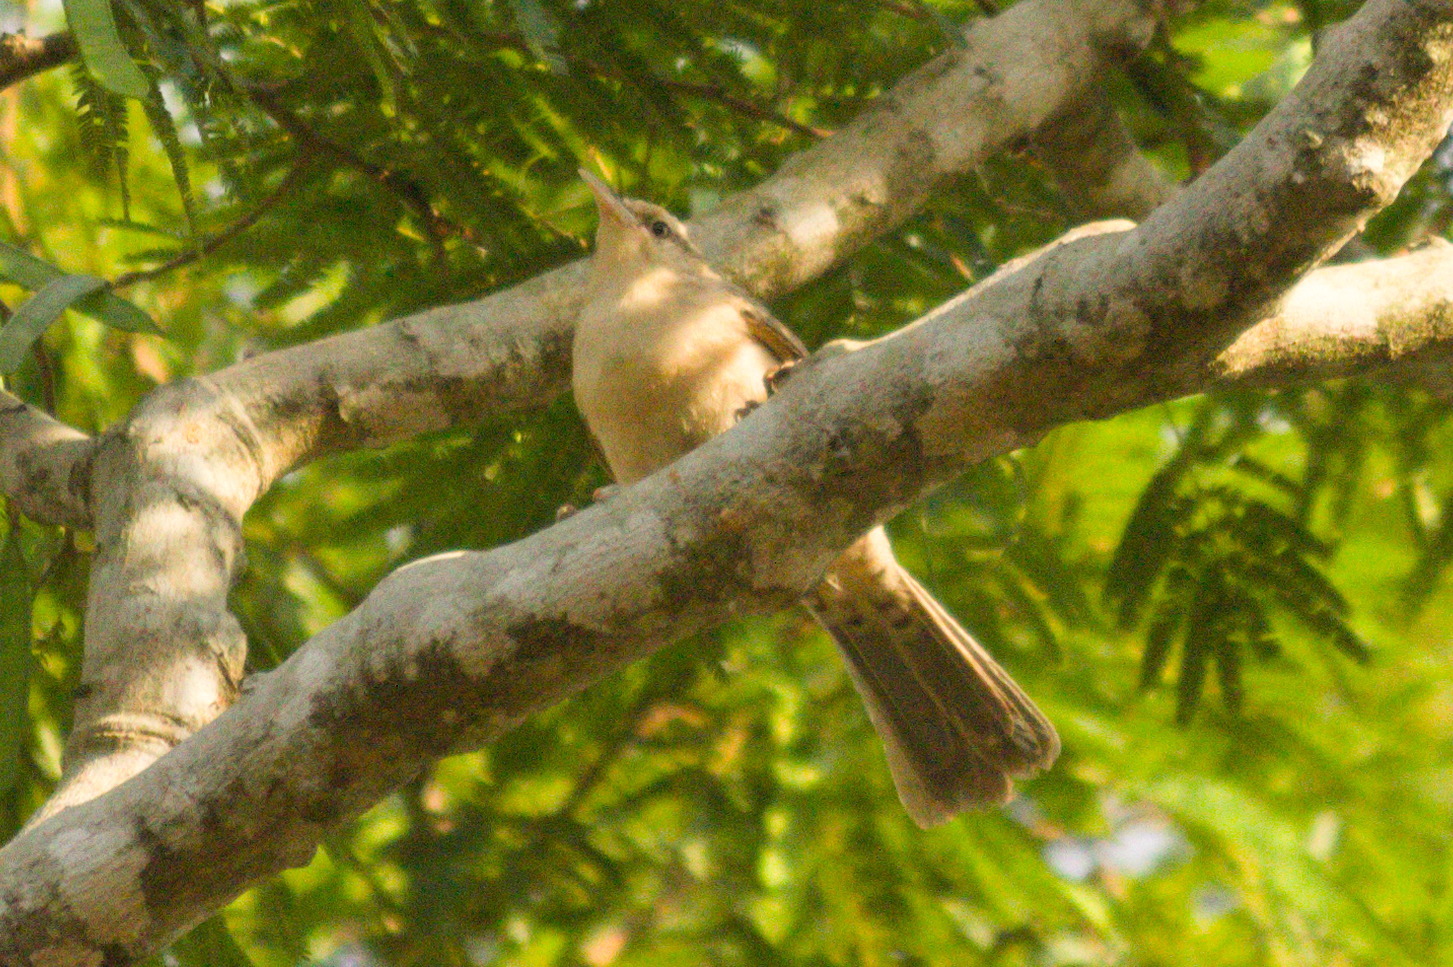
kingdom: Animalia
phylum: Chordata
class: Aves
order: Passeriformes
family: Troglodytidae
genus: Campylorhynchus
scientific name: Campylorhynchus turdinus
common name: Thrush-like wren
